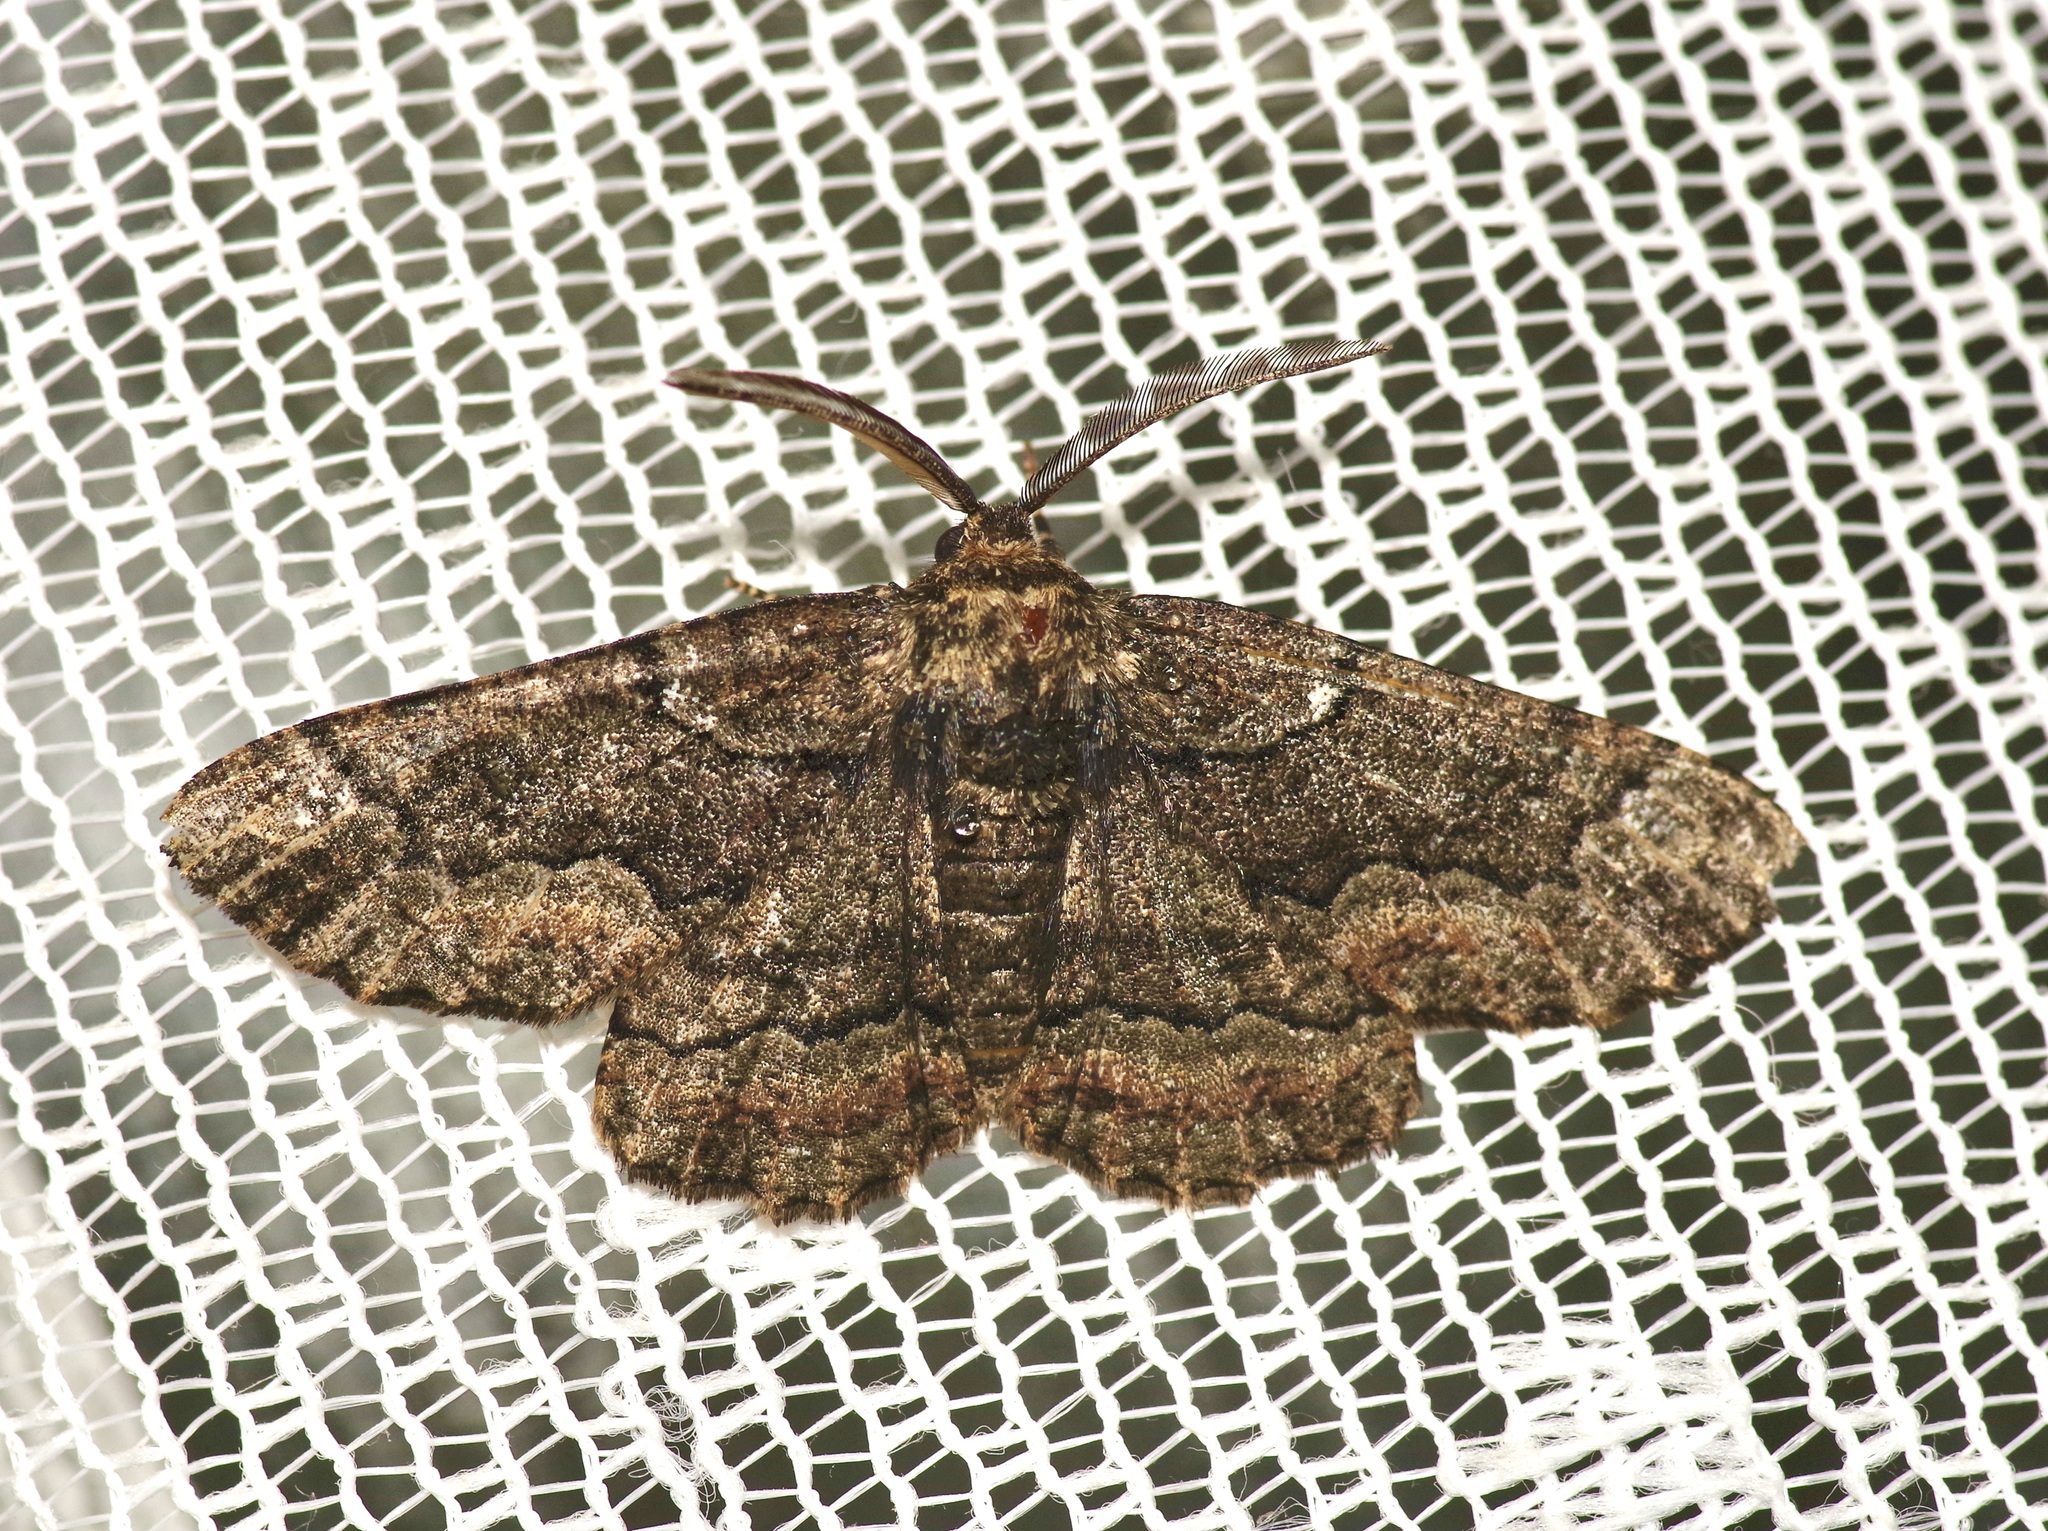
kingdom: Animalia
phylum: Arthropoda
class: Insecta
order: Lepidoptera
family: Geometridae
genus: Phaeoura
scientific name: Phaeoura quernaria
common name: Oak beauty
